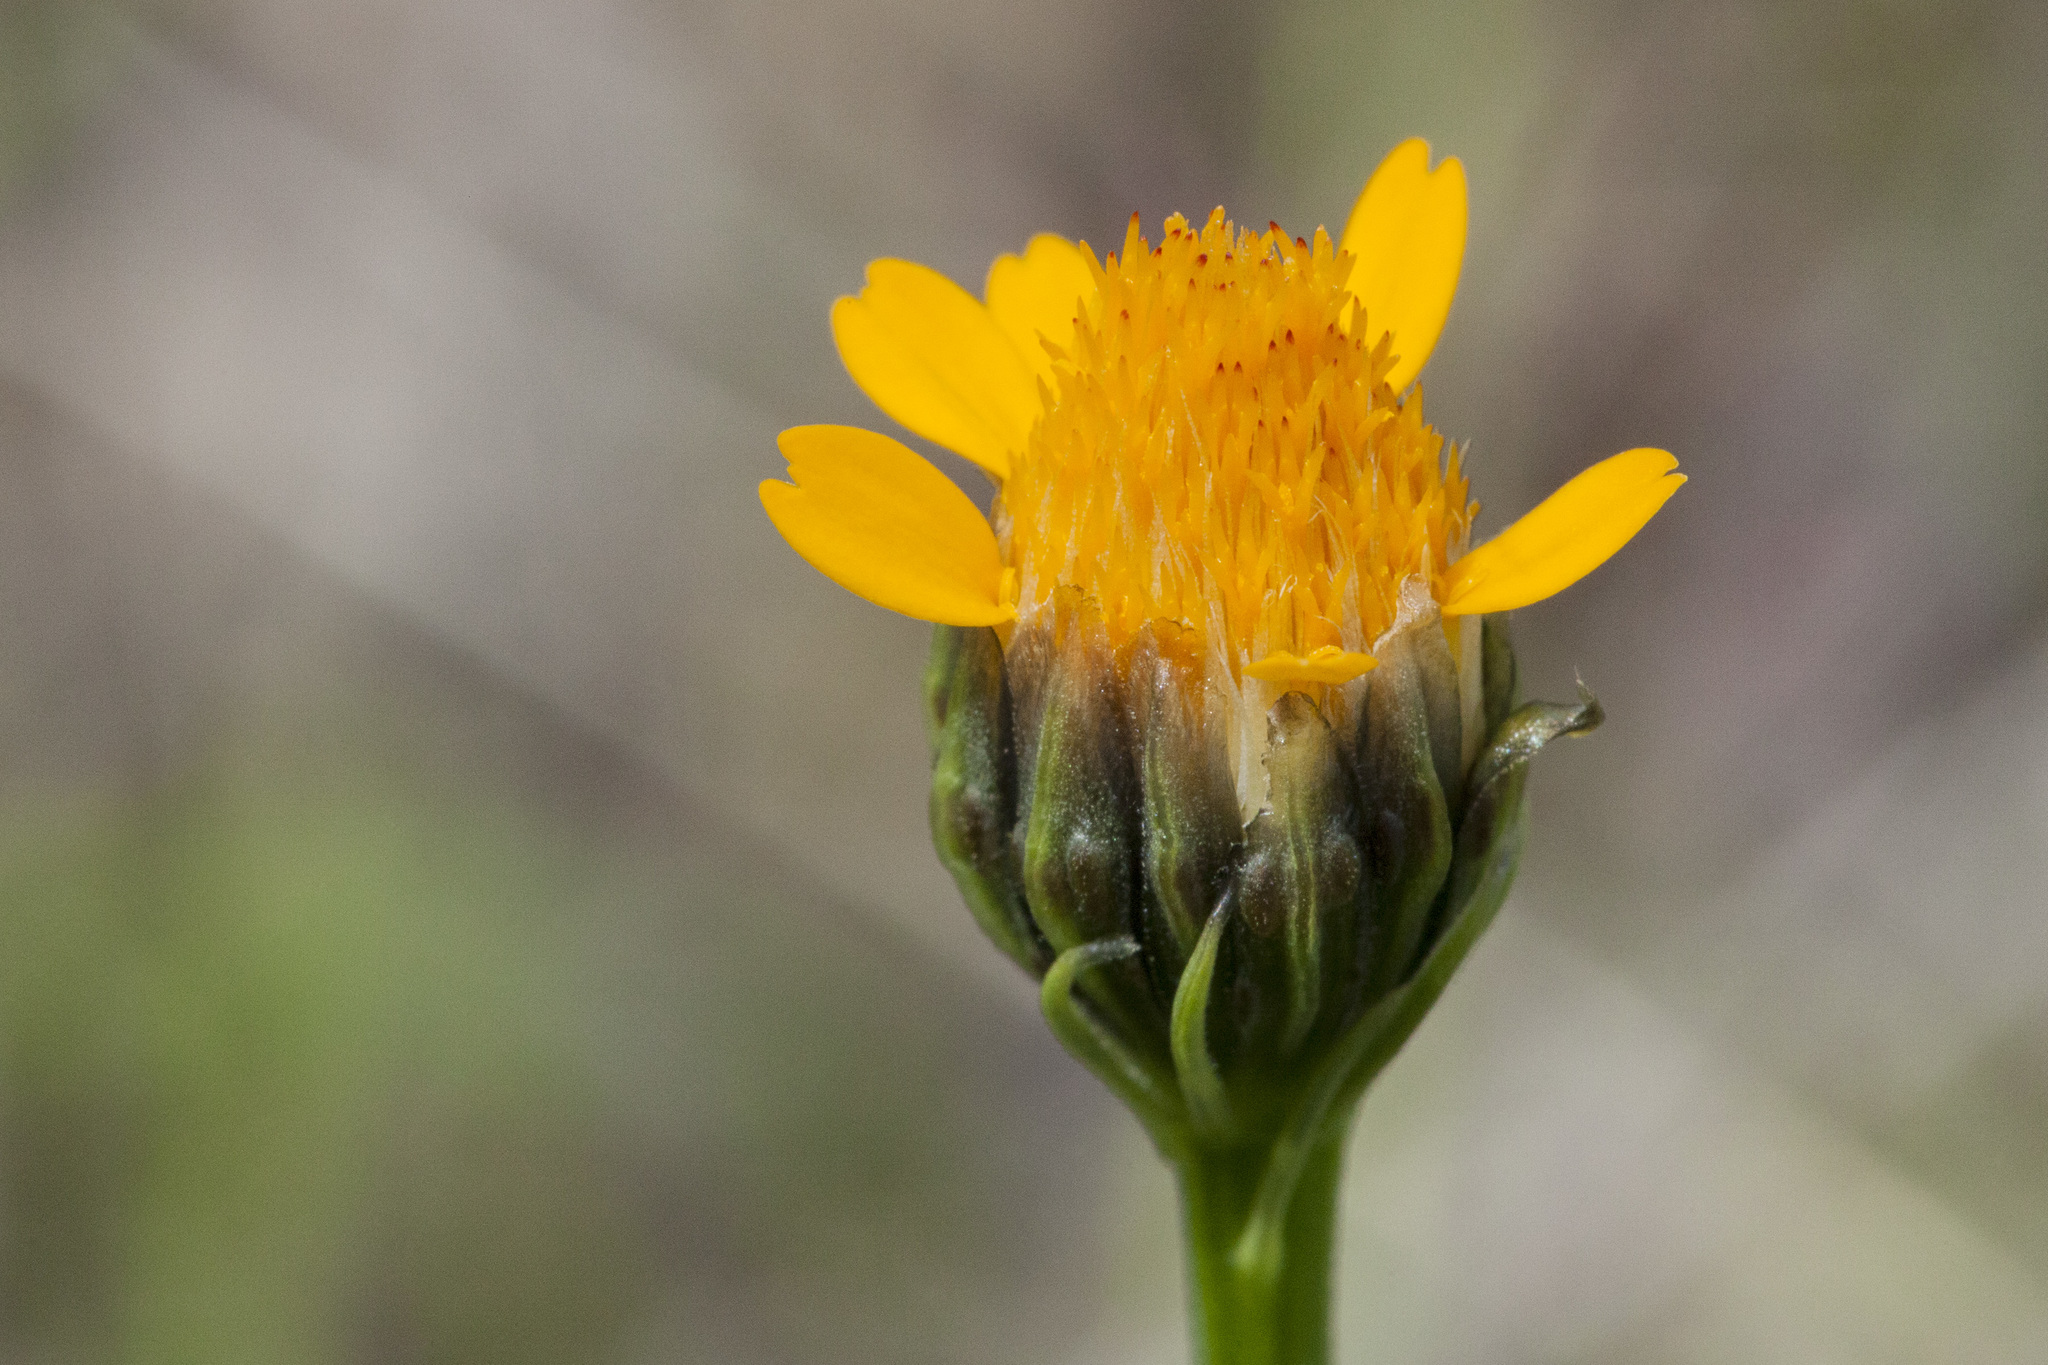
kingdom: Plantae
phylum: Tracheophyta
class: Magnoliopsida
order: Asterales
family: Asteraceae
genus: Adenophyllum
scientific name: Adenophyllum wrightii
